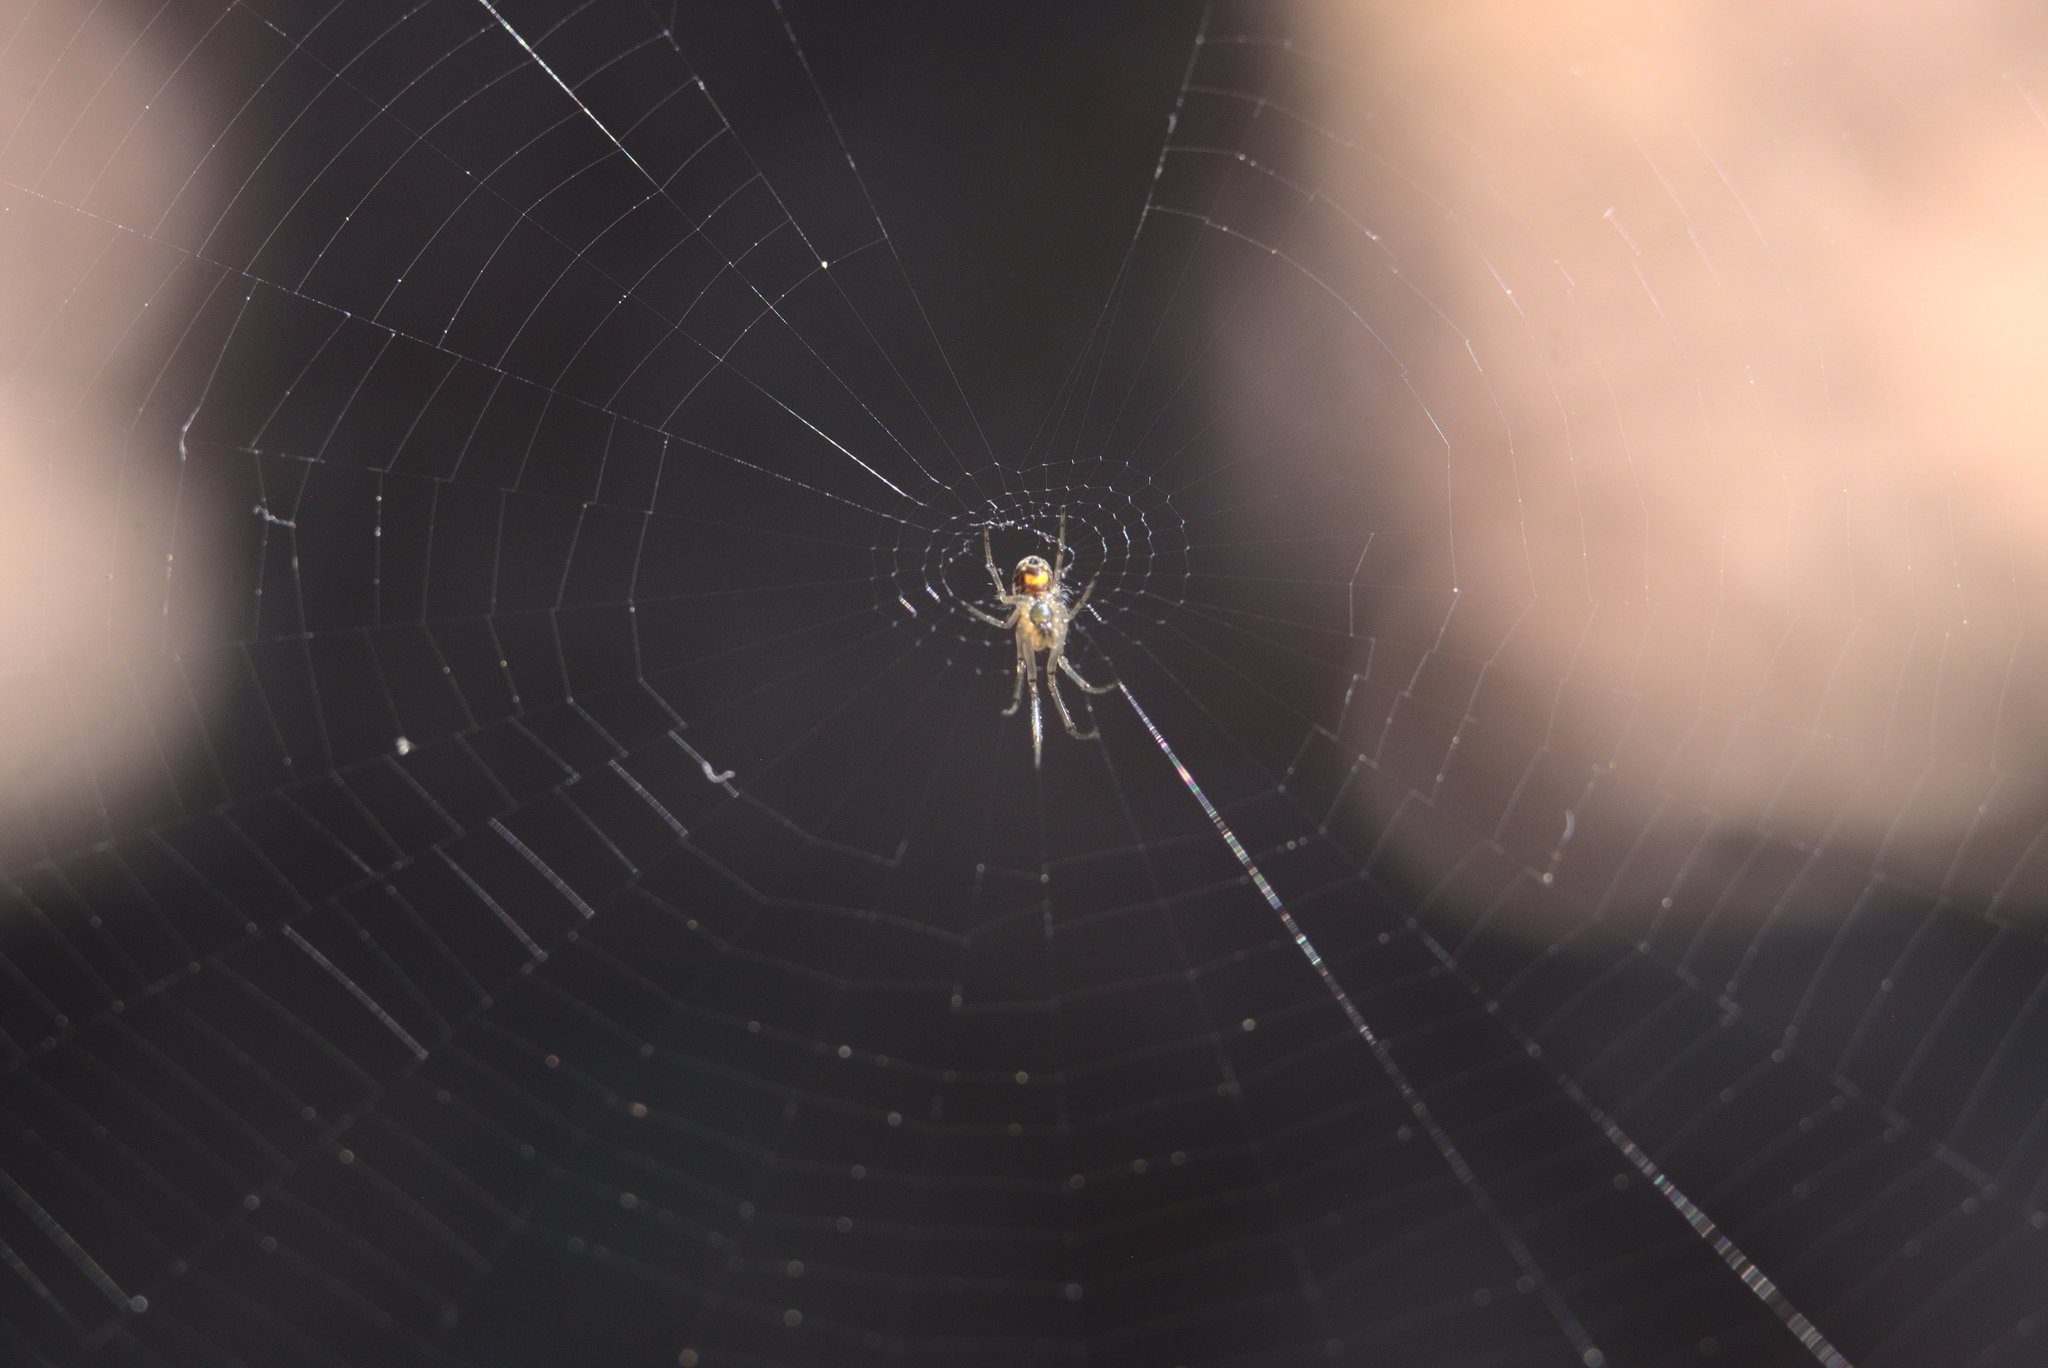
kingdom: Animalia
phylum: Arthropoda
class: Arachnida
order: Araneae
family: Tetragnathidae
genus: Leucauge
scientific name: Leucauge venusta
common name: Longjawed orb weavers
